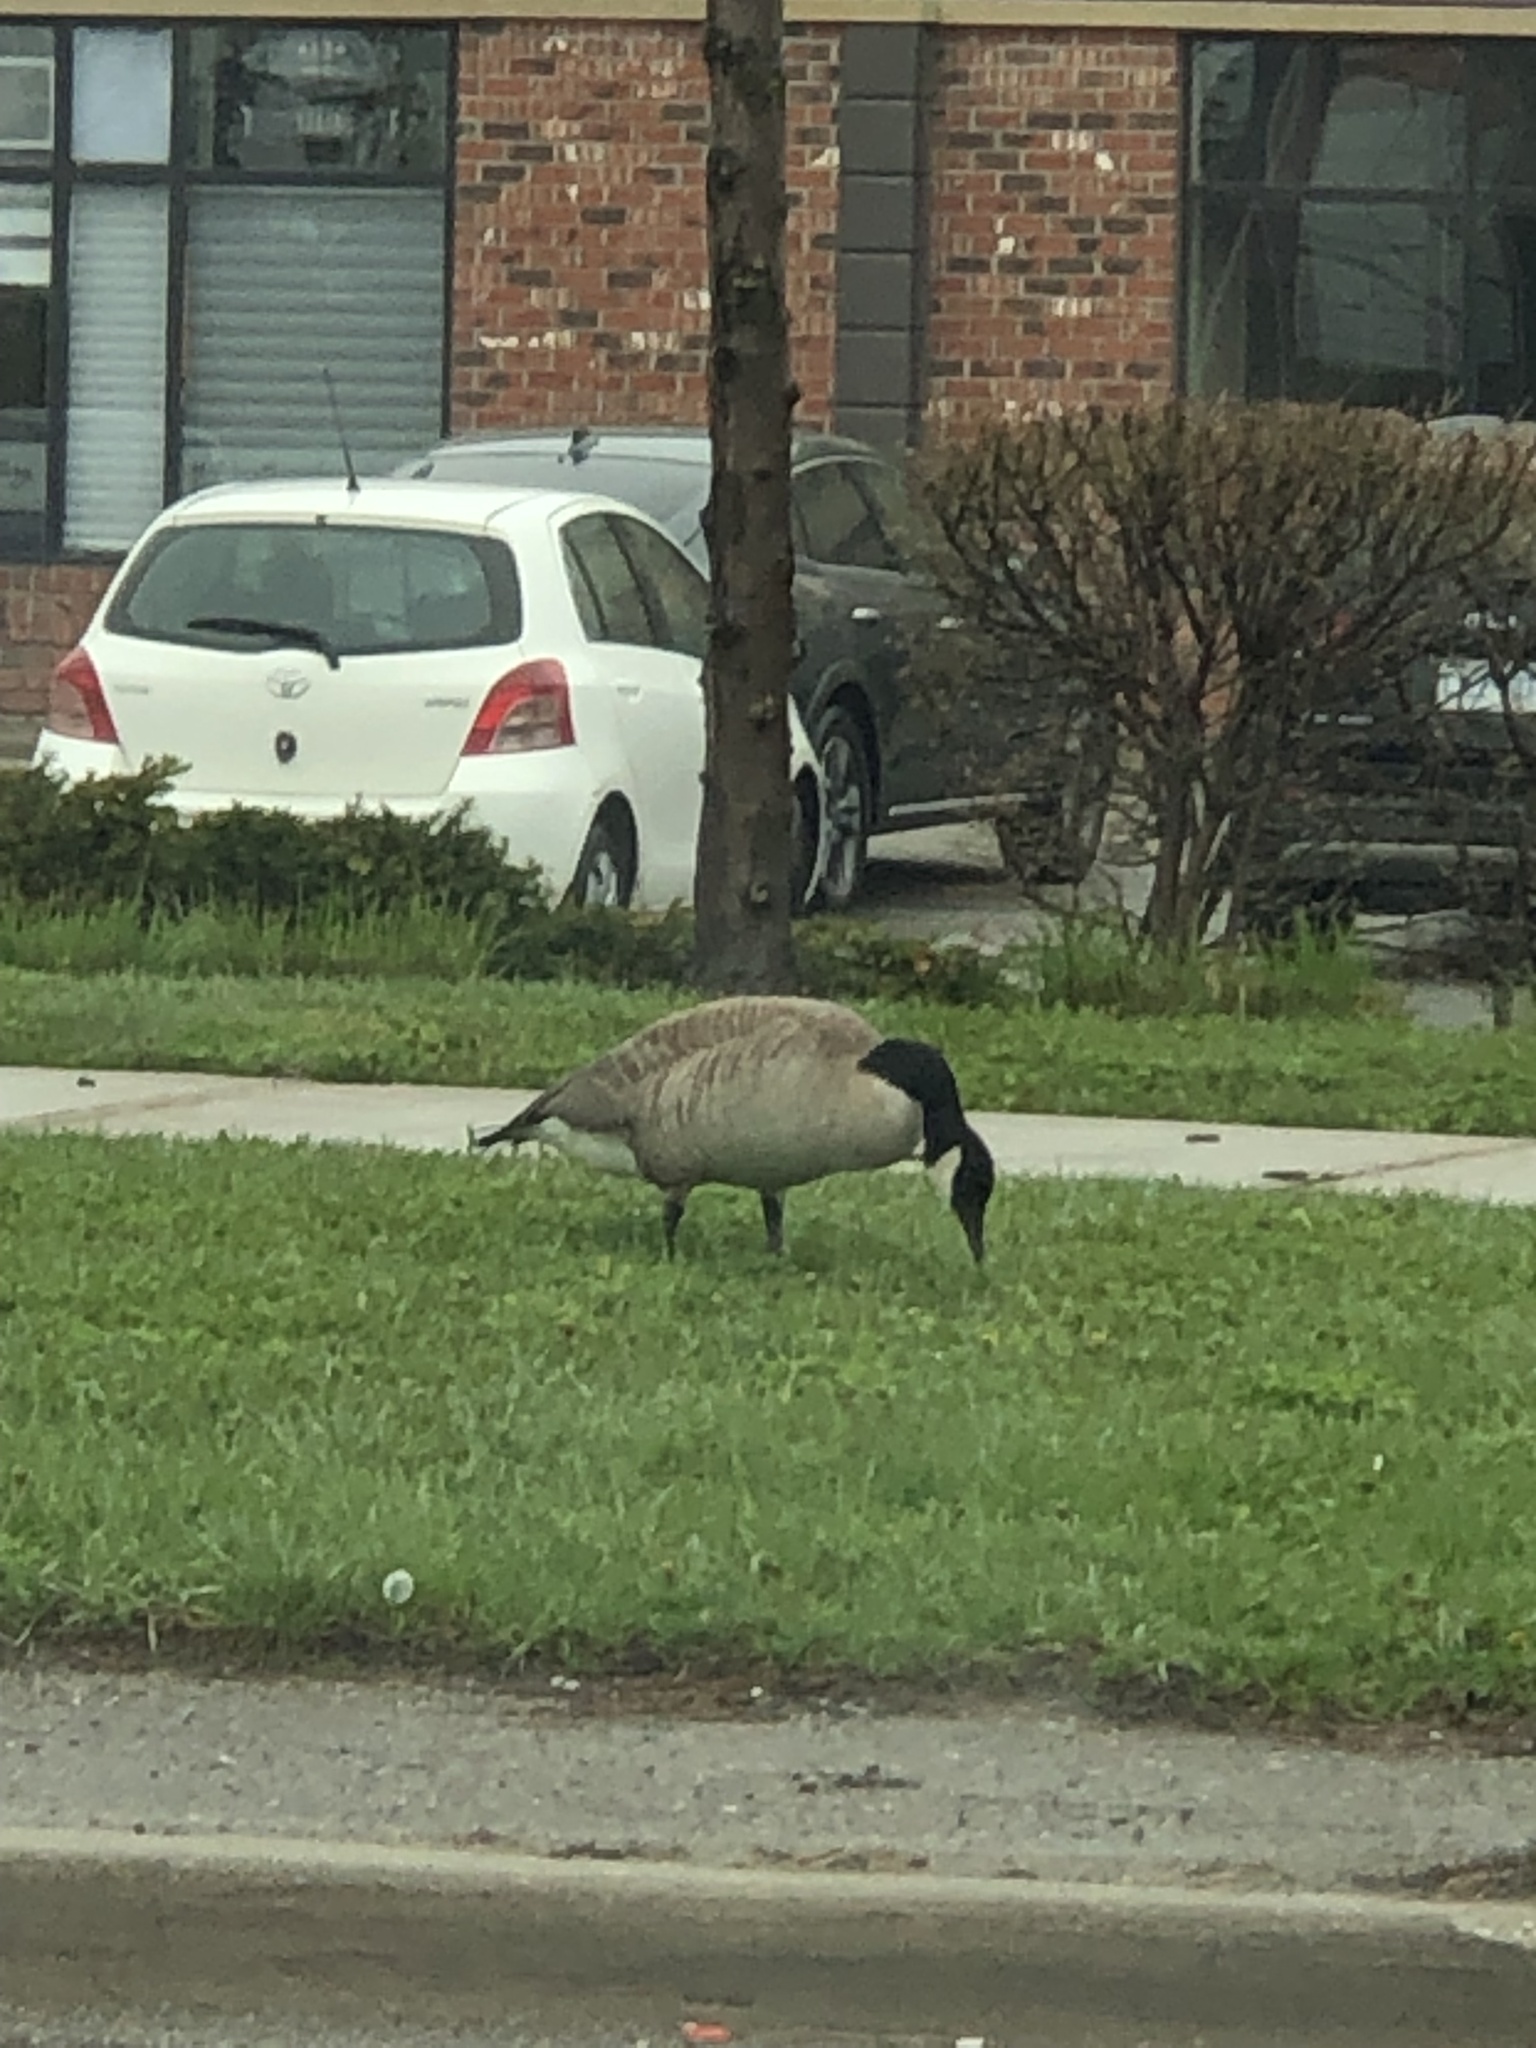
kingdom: Animalia
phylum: Chordata
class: Aves
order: Anseriformes
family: Anatidae
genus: Branta
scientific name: Branta canadensis
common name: Canada goose
